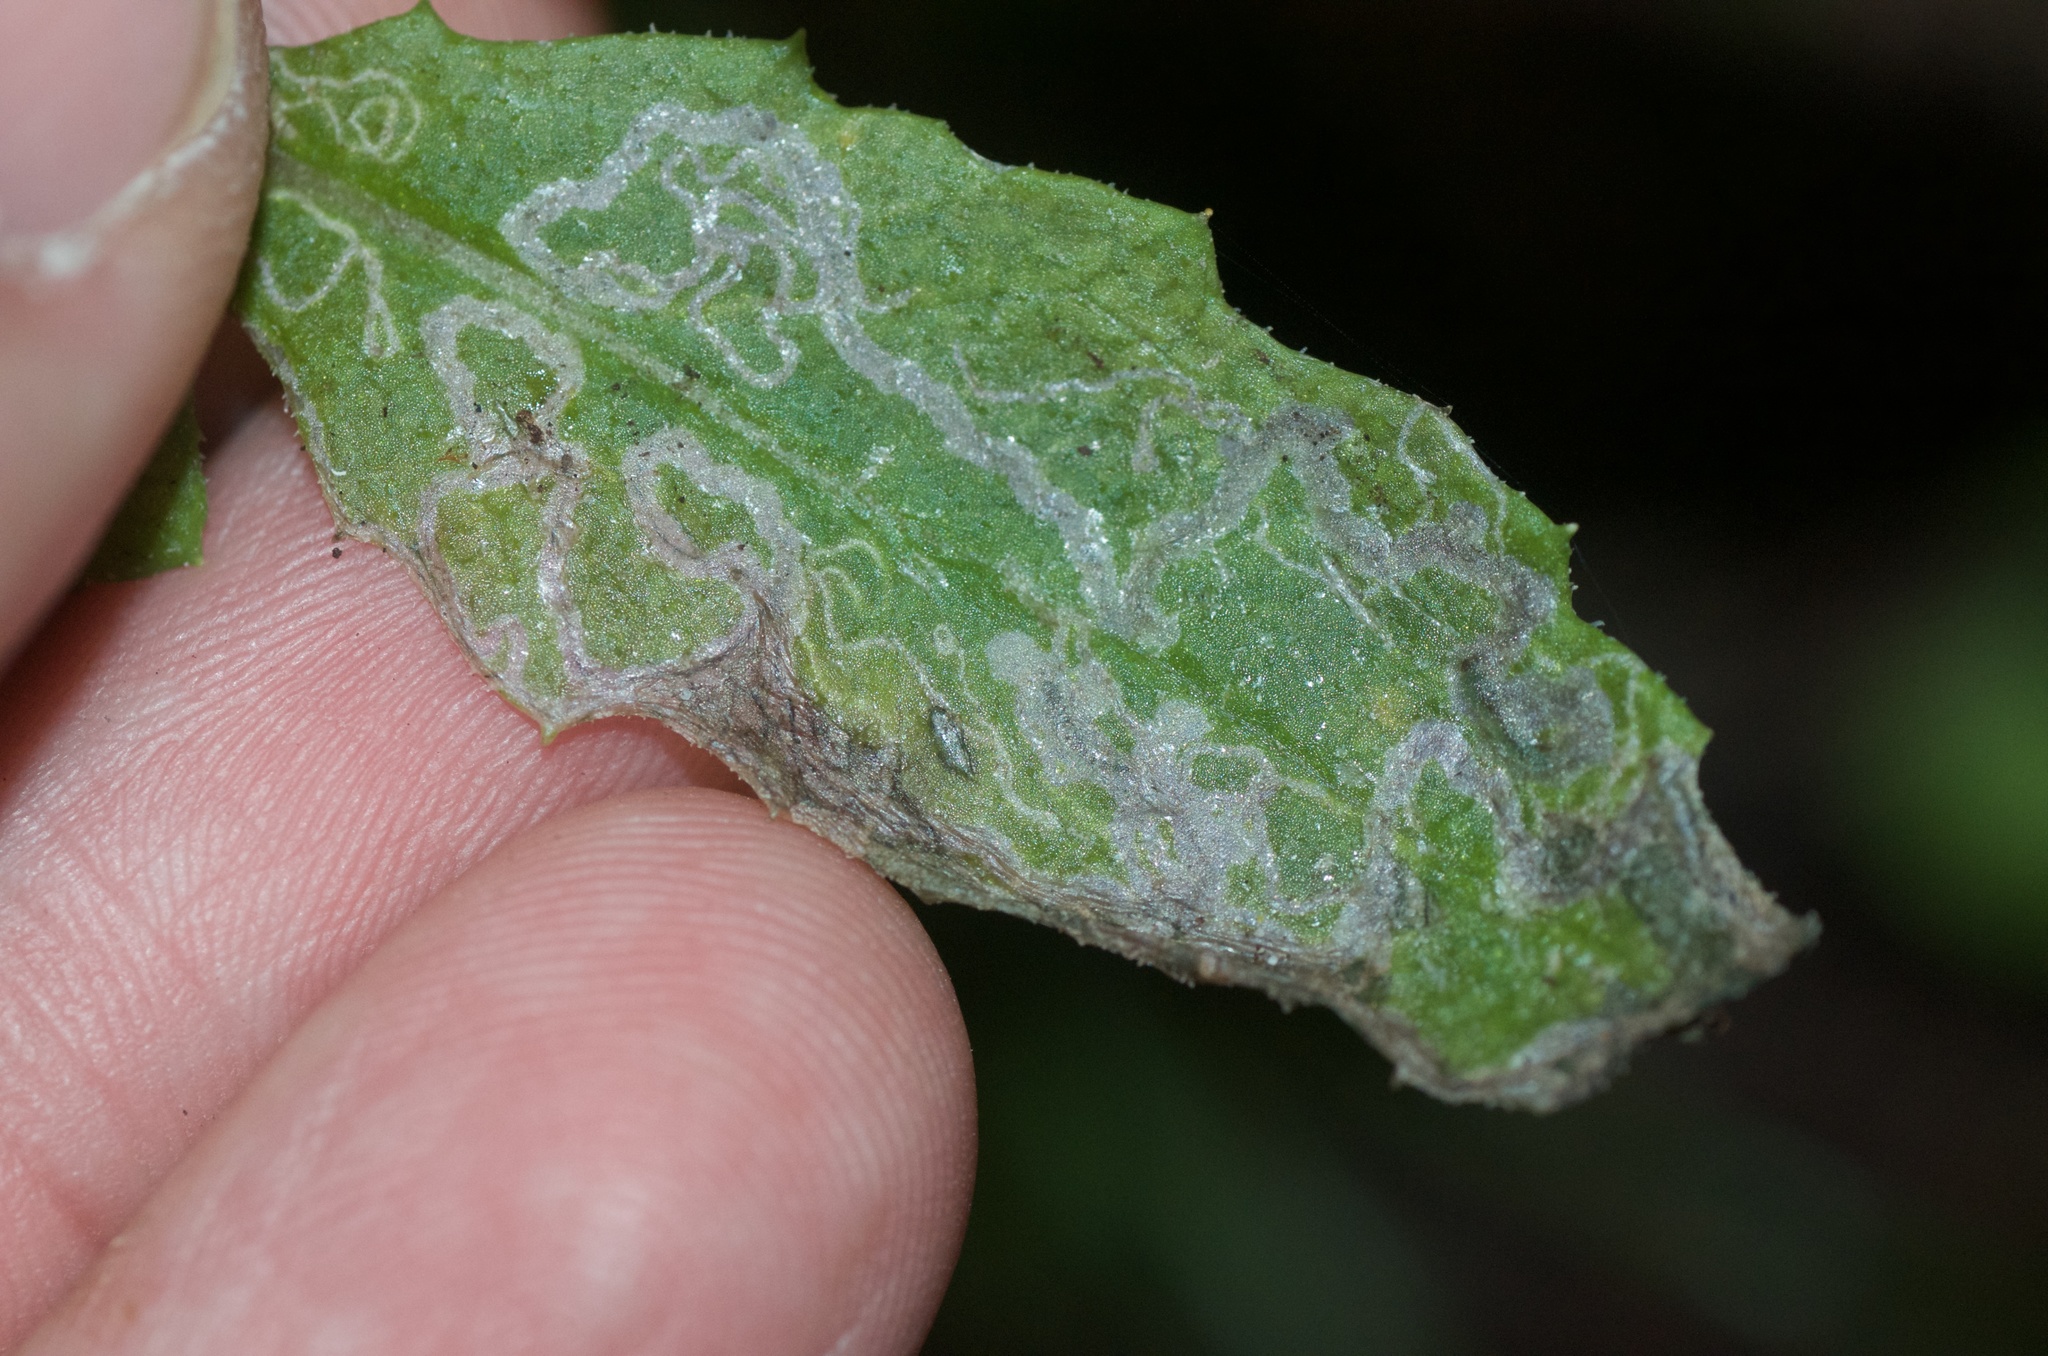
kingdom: Plantae
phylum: Tracheophyta
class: Magnoliopsida
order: Asterales
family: Asteraceae
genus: Senecio
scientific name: Senecio minimus
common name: Toothed fireweed
